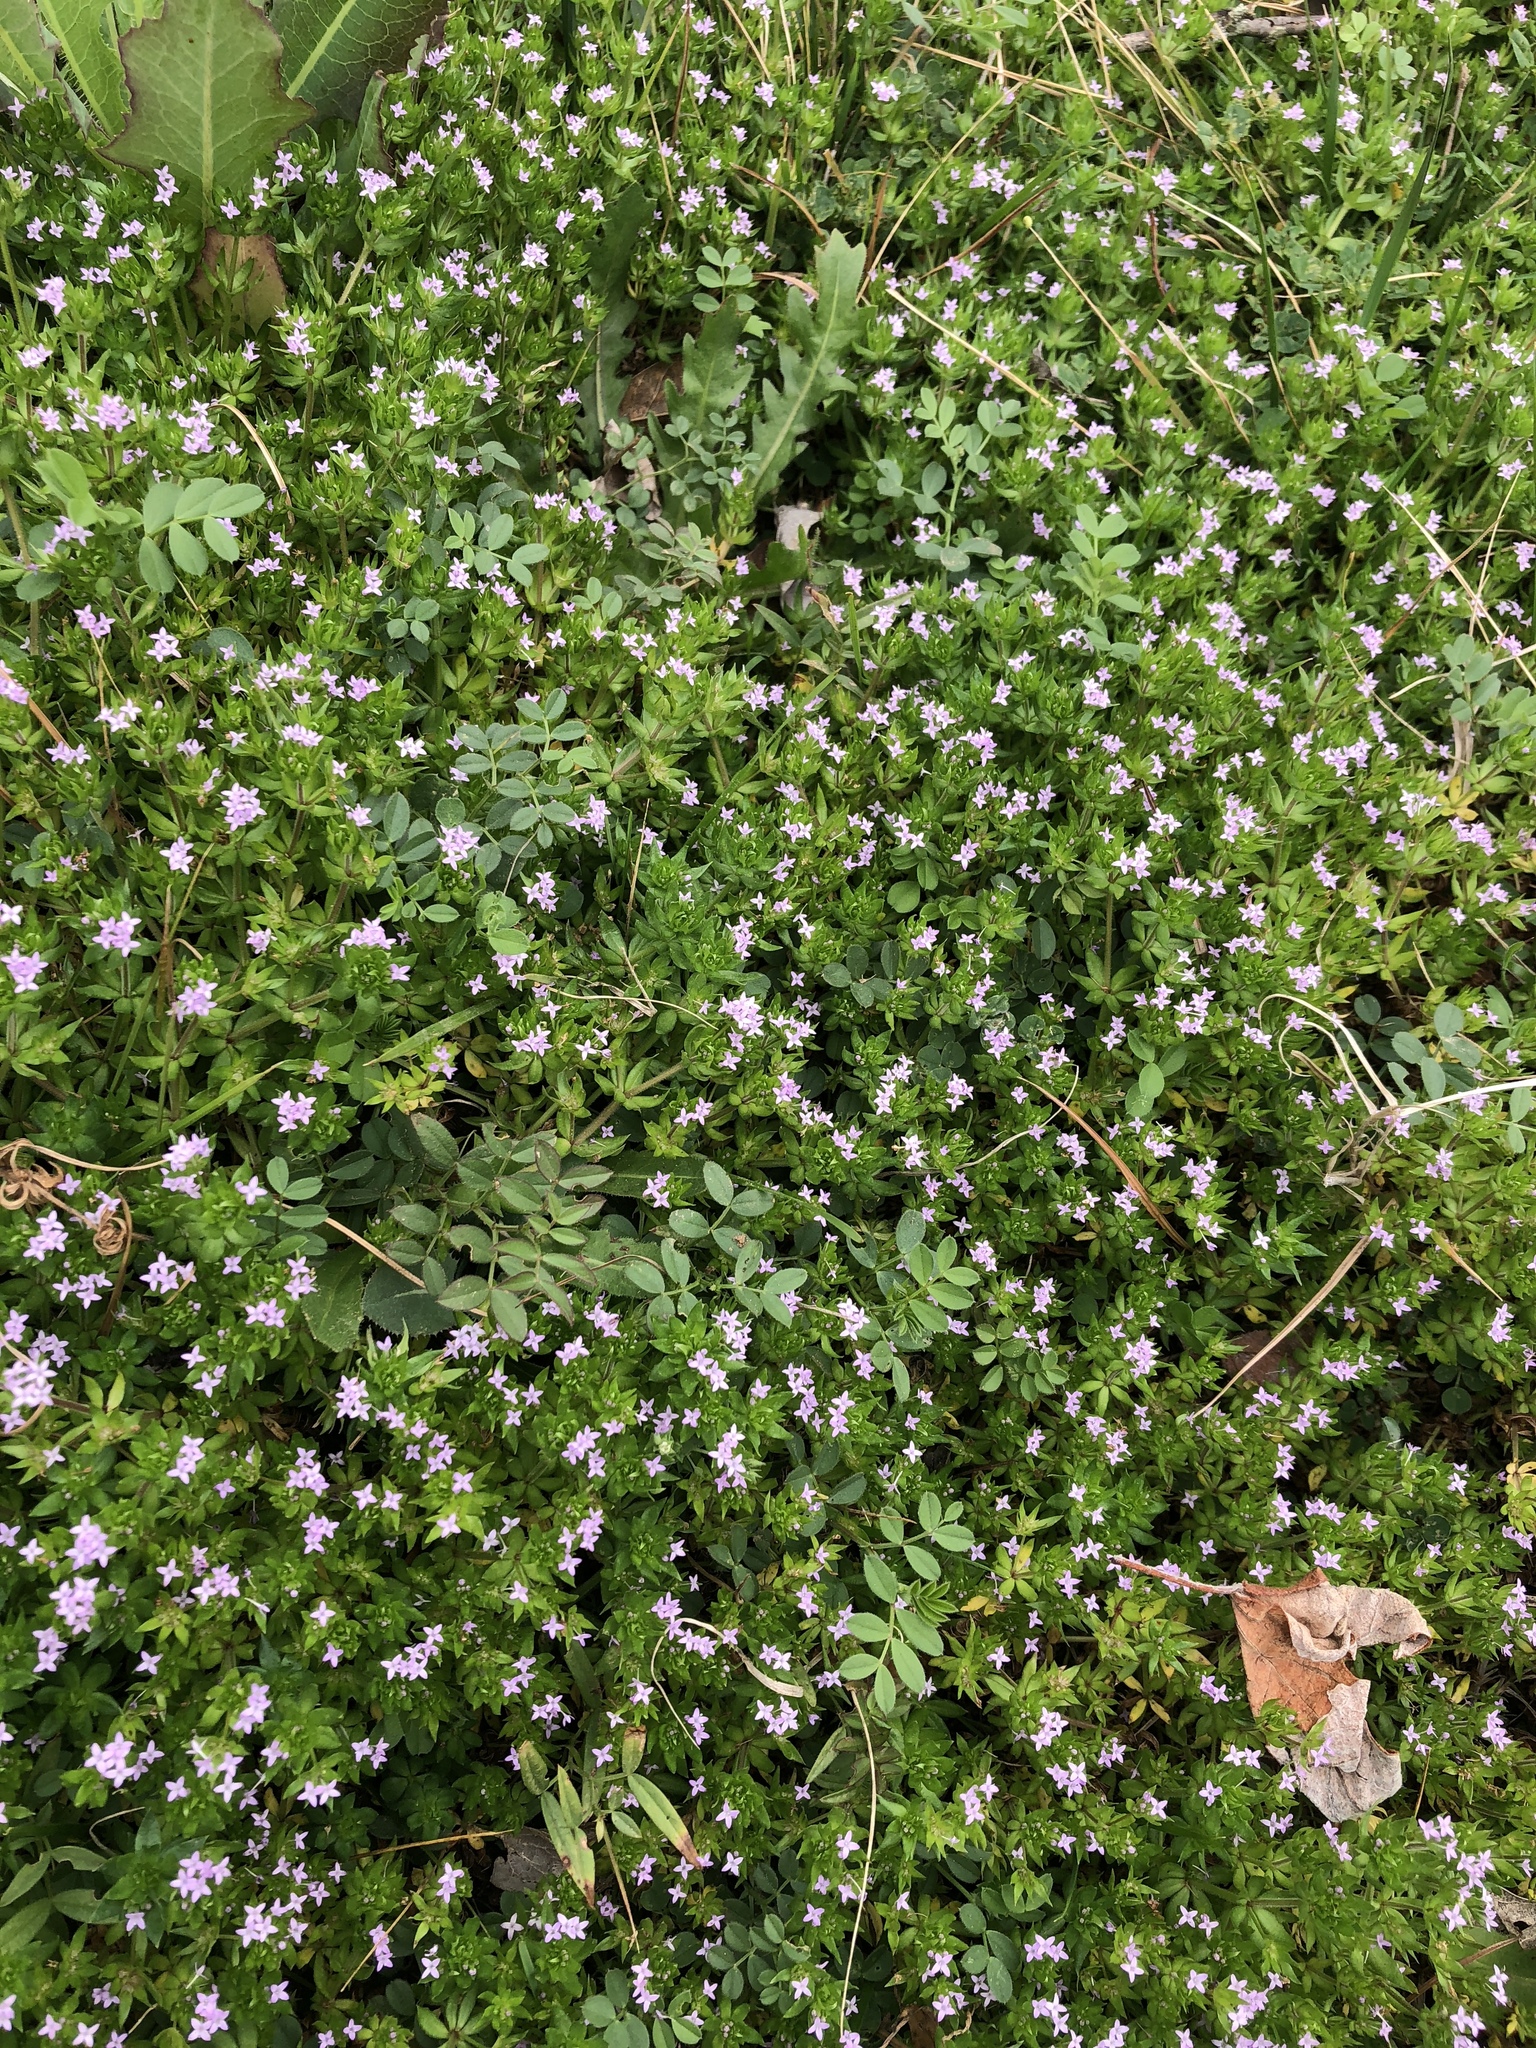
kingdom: Plantae
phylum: Tracheophyta
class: Magnoliopsida
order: Gentianales
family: Rubiaceae
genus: Sherardia
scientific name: Sherardia arvensis
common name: Field madder
